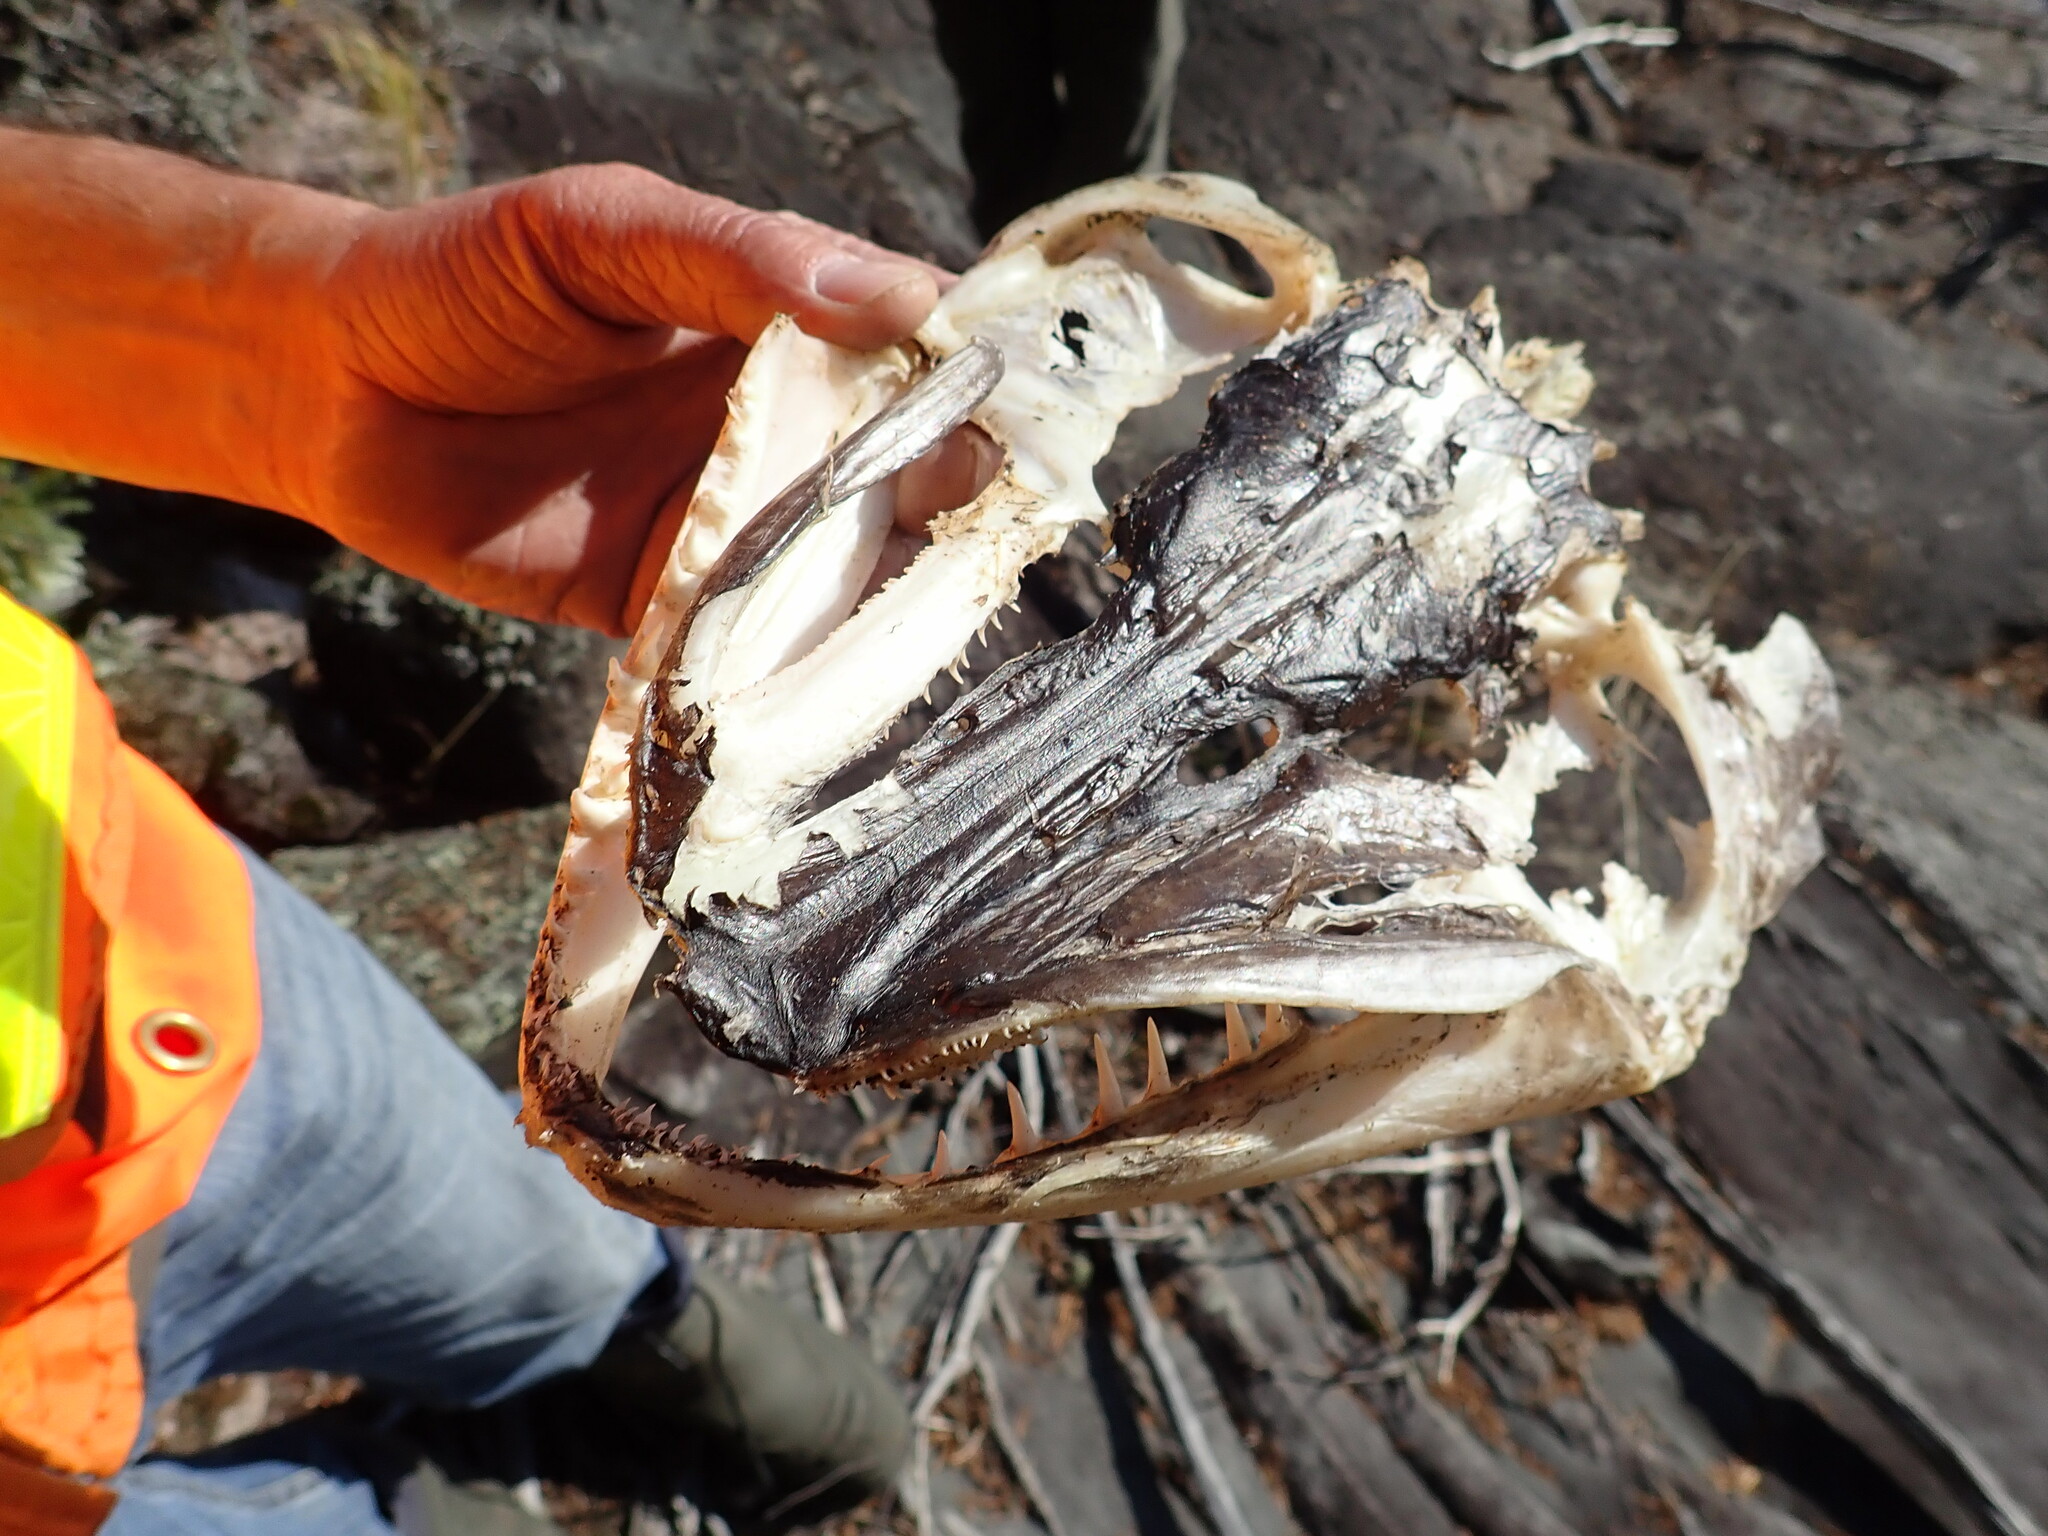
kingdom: Animalia
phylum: Chordata
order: Esociformes
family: Esocidae
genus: Esox
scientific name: Esox lucius
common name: Northern pike
